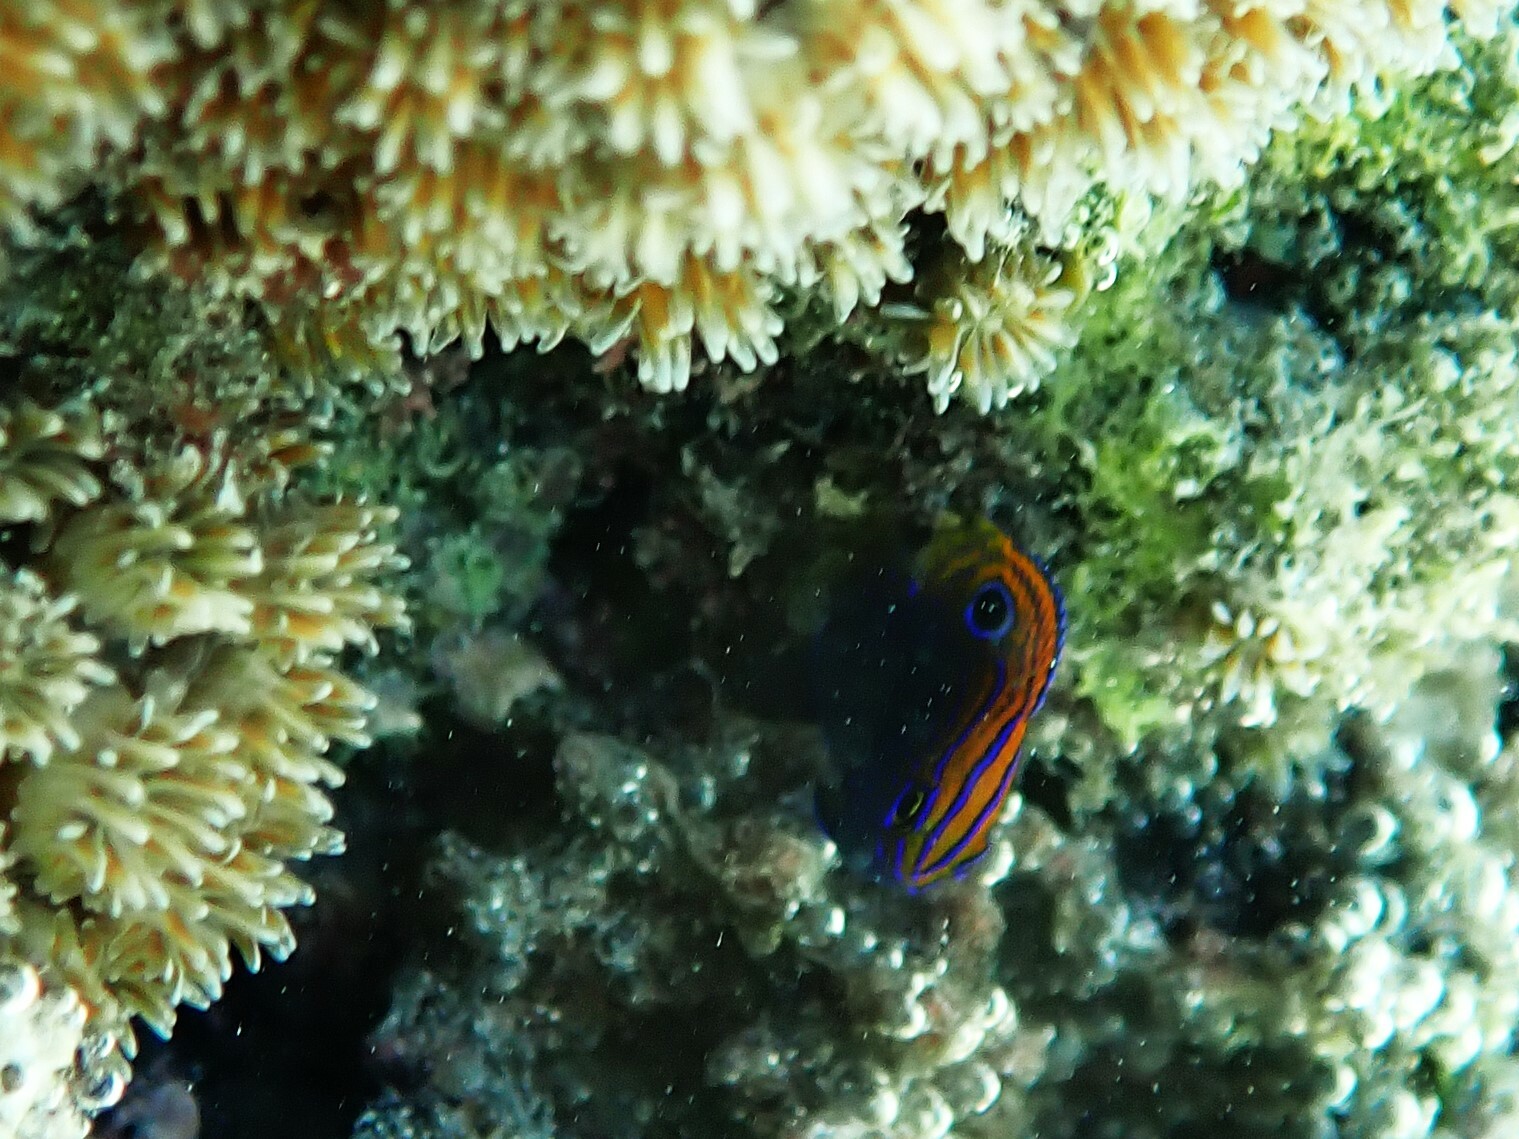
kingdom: Animalia
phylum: Chordata
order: Perciformes
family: Pomacentridae
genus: Pomacentrus
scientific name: Pomacentrus vaiuli
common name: Princess damsel
